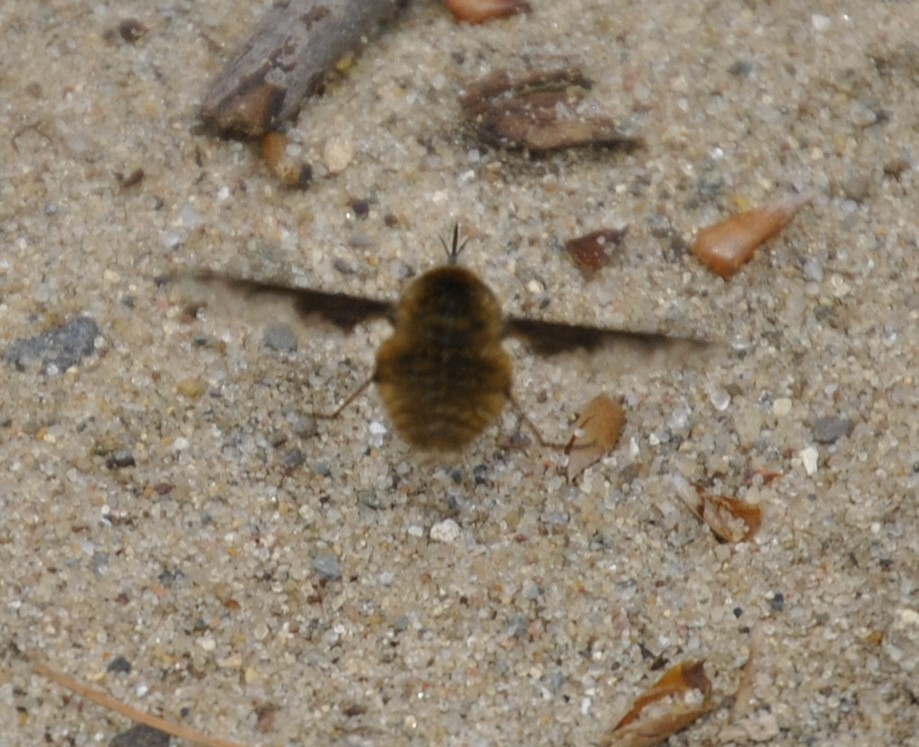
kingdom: Animalia
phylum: Arthropoda
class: Insecta
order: Diptera
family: Bombyliidae
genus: Bombylius
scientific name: Bombylius major
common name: Bee fly
